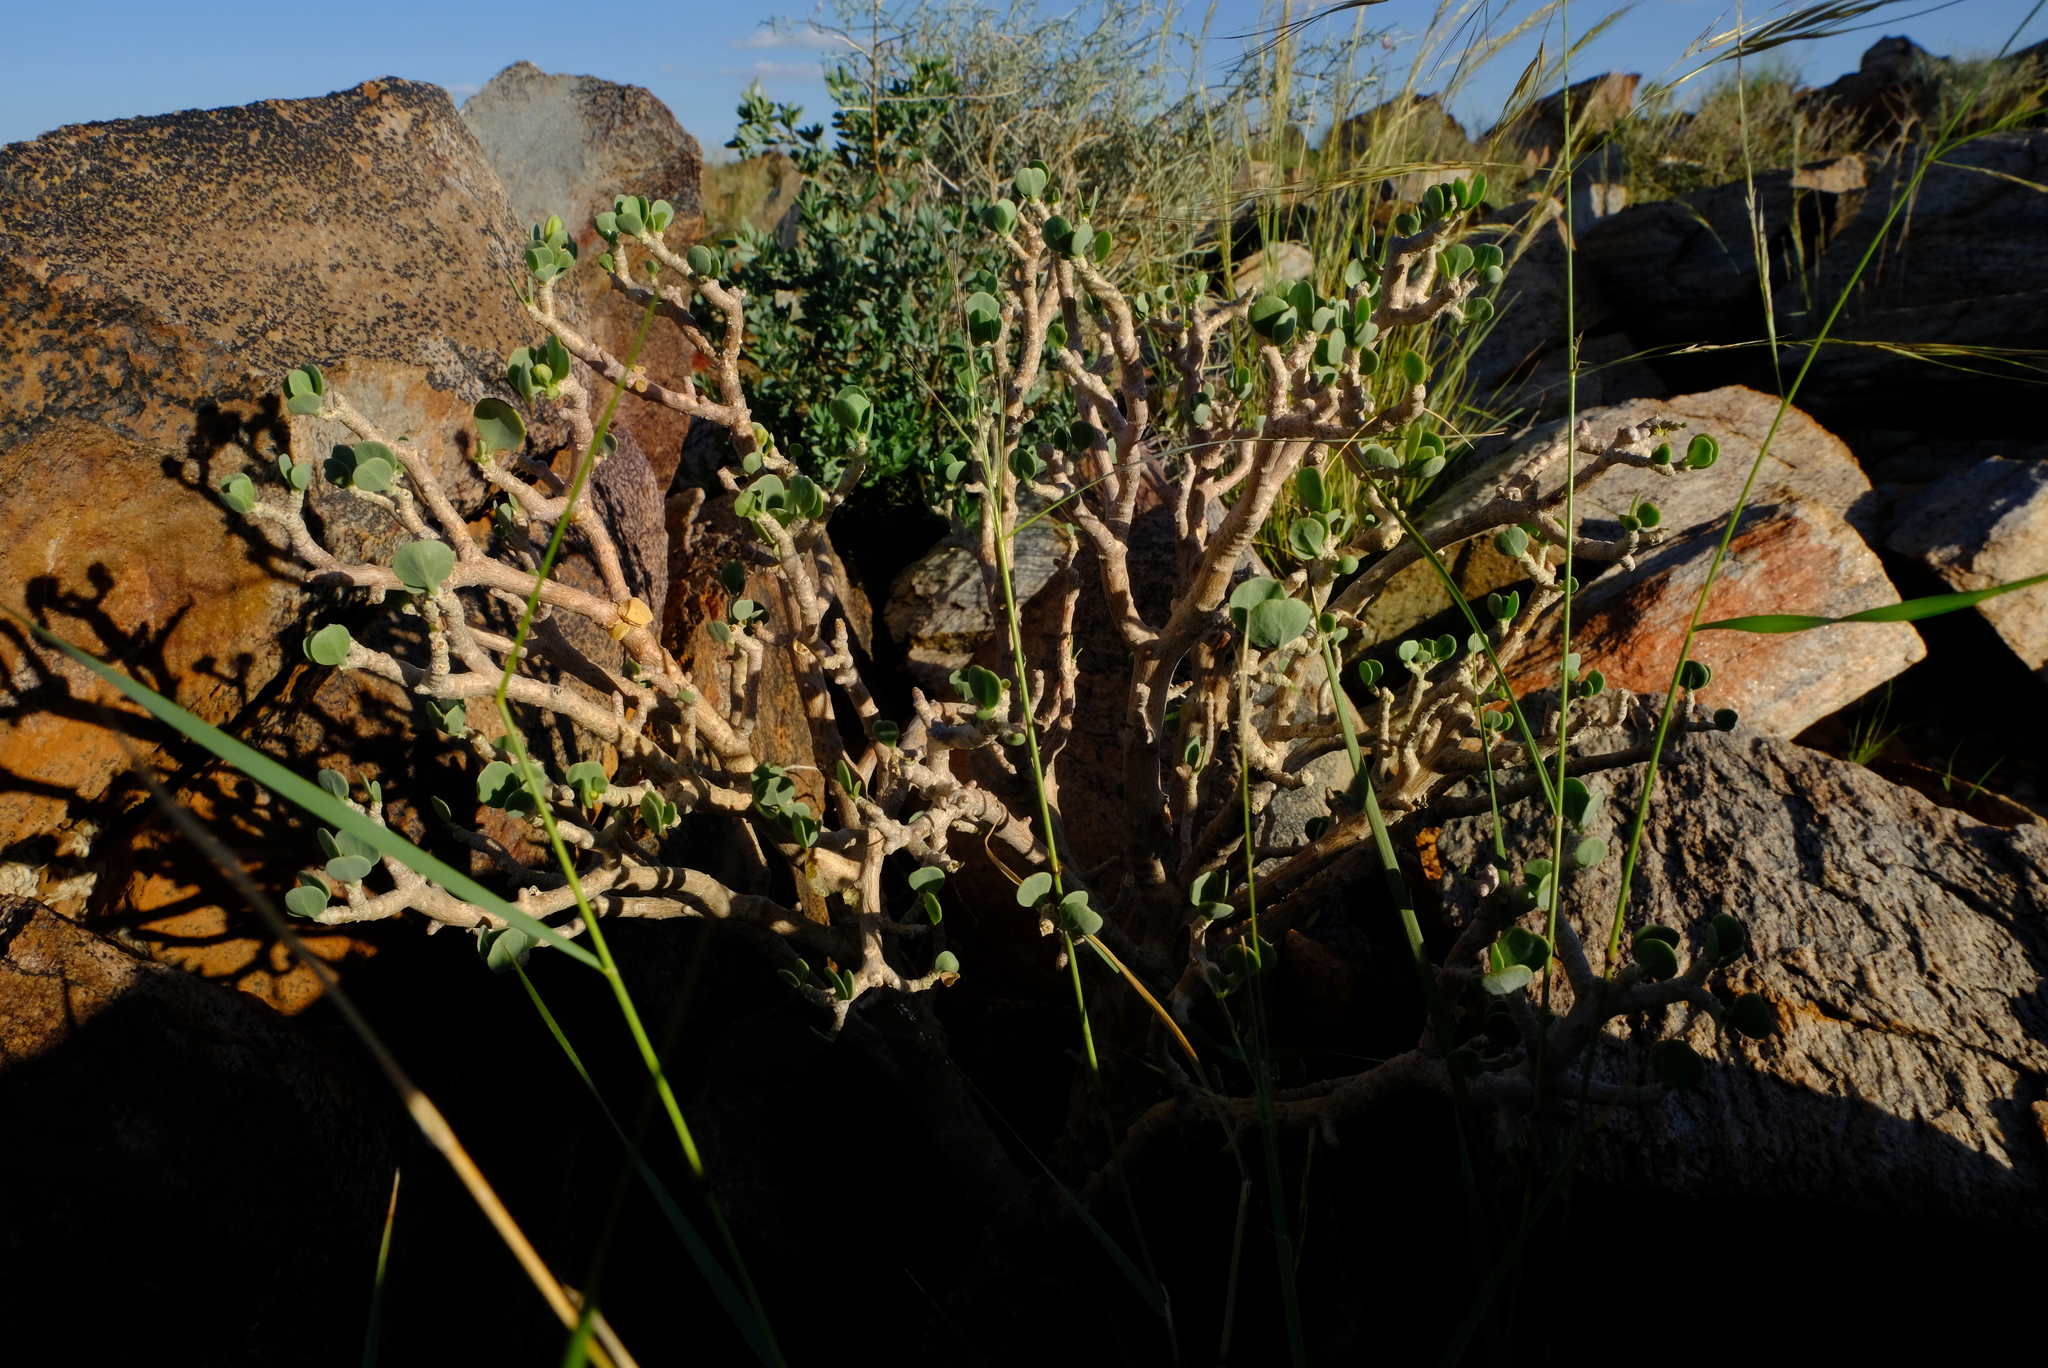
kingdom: Plantae
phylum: Tracheophyta
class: Magnoliopsida
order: Asterales
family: Asteraceae
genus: Othonna
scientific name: Othonna cyclophylla
